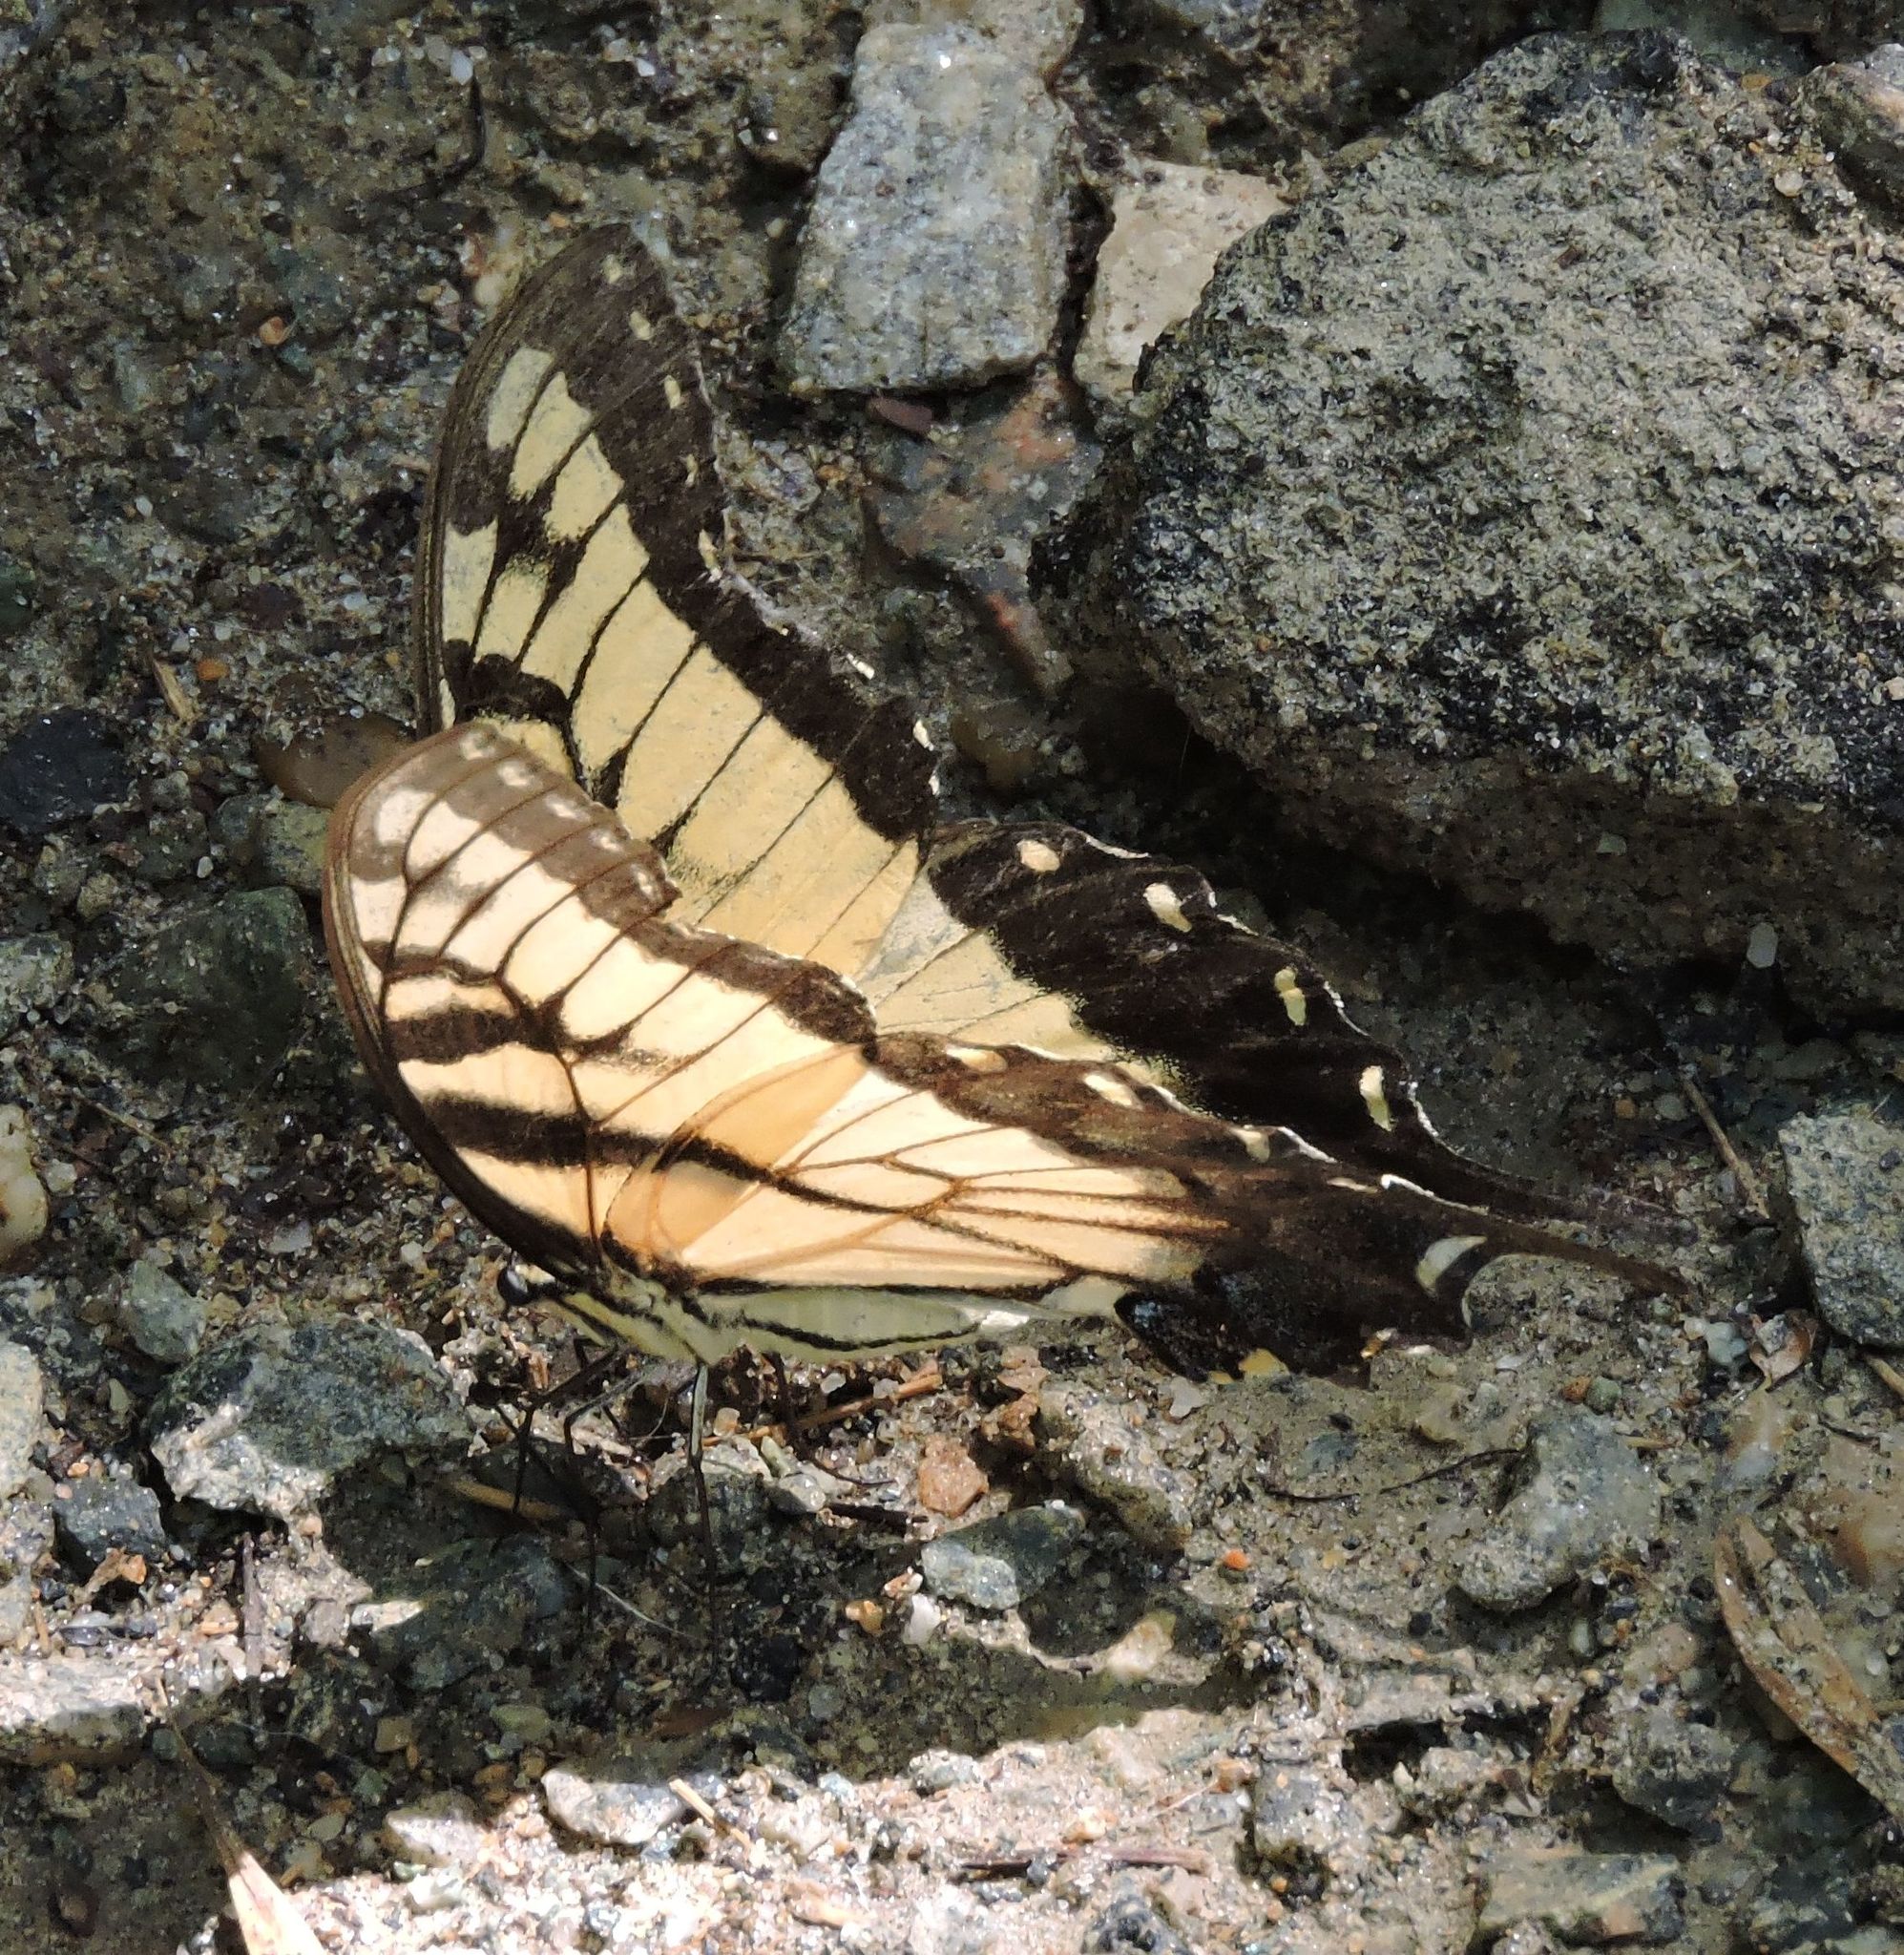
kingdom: Animalia
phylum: Arthropoda
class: Insecta
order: Lepidoptera
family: Papilionidae
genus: Papilio
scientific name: Papilio glaucus
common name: Tiger swallowtail
